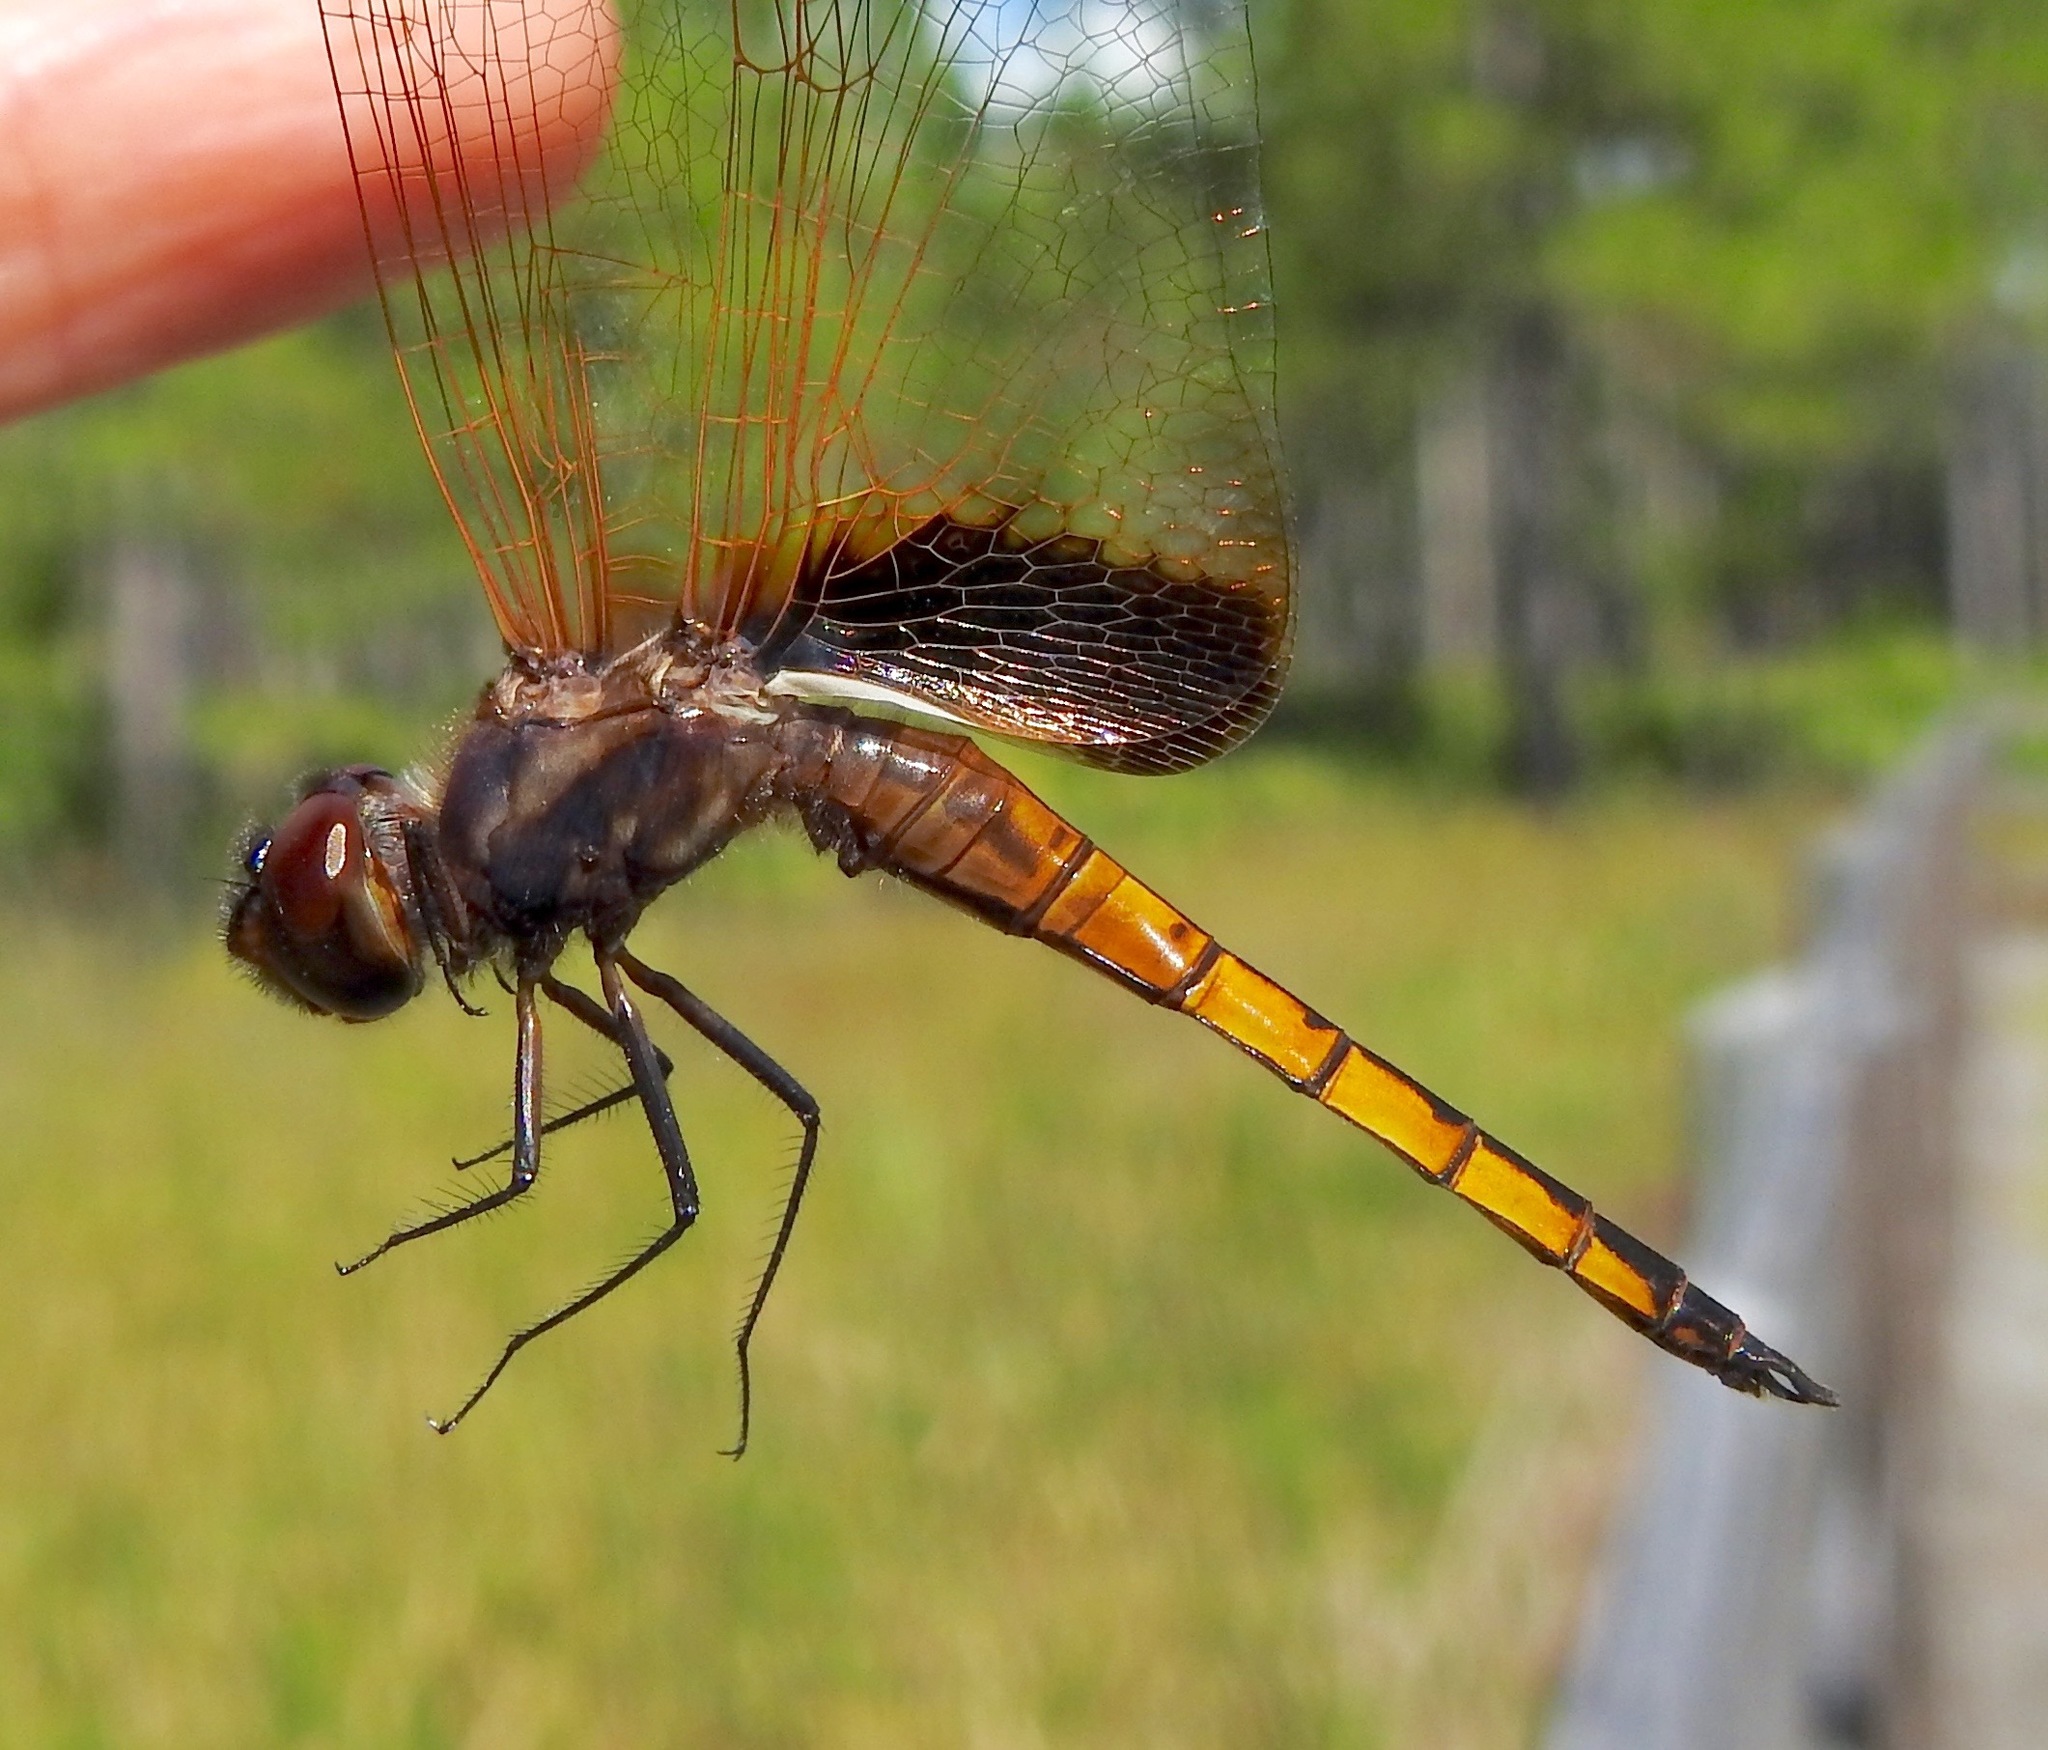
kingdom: Animalia
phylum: Arthropoda
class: Insecta
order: Odonata
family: Libellulidae
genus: Miathyria
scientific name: Miathyria marcella
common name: Hyacinth glider
